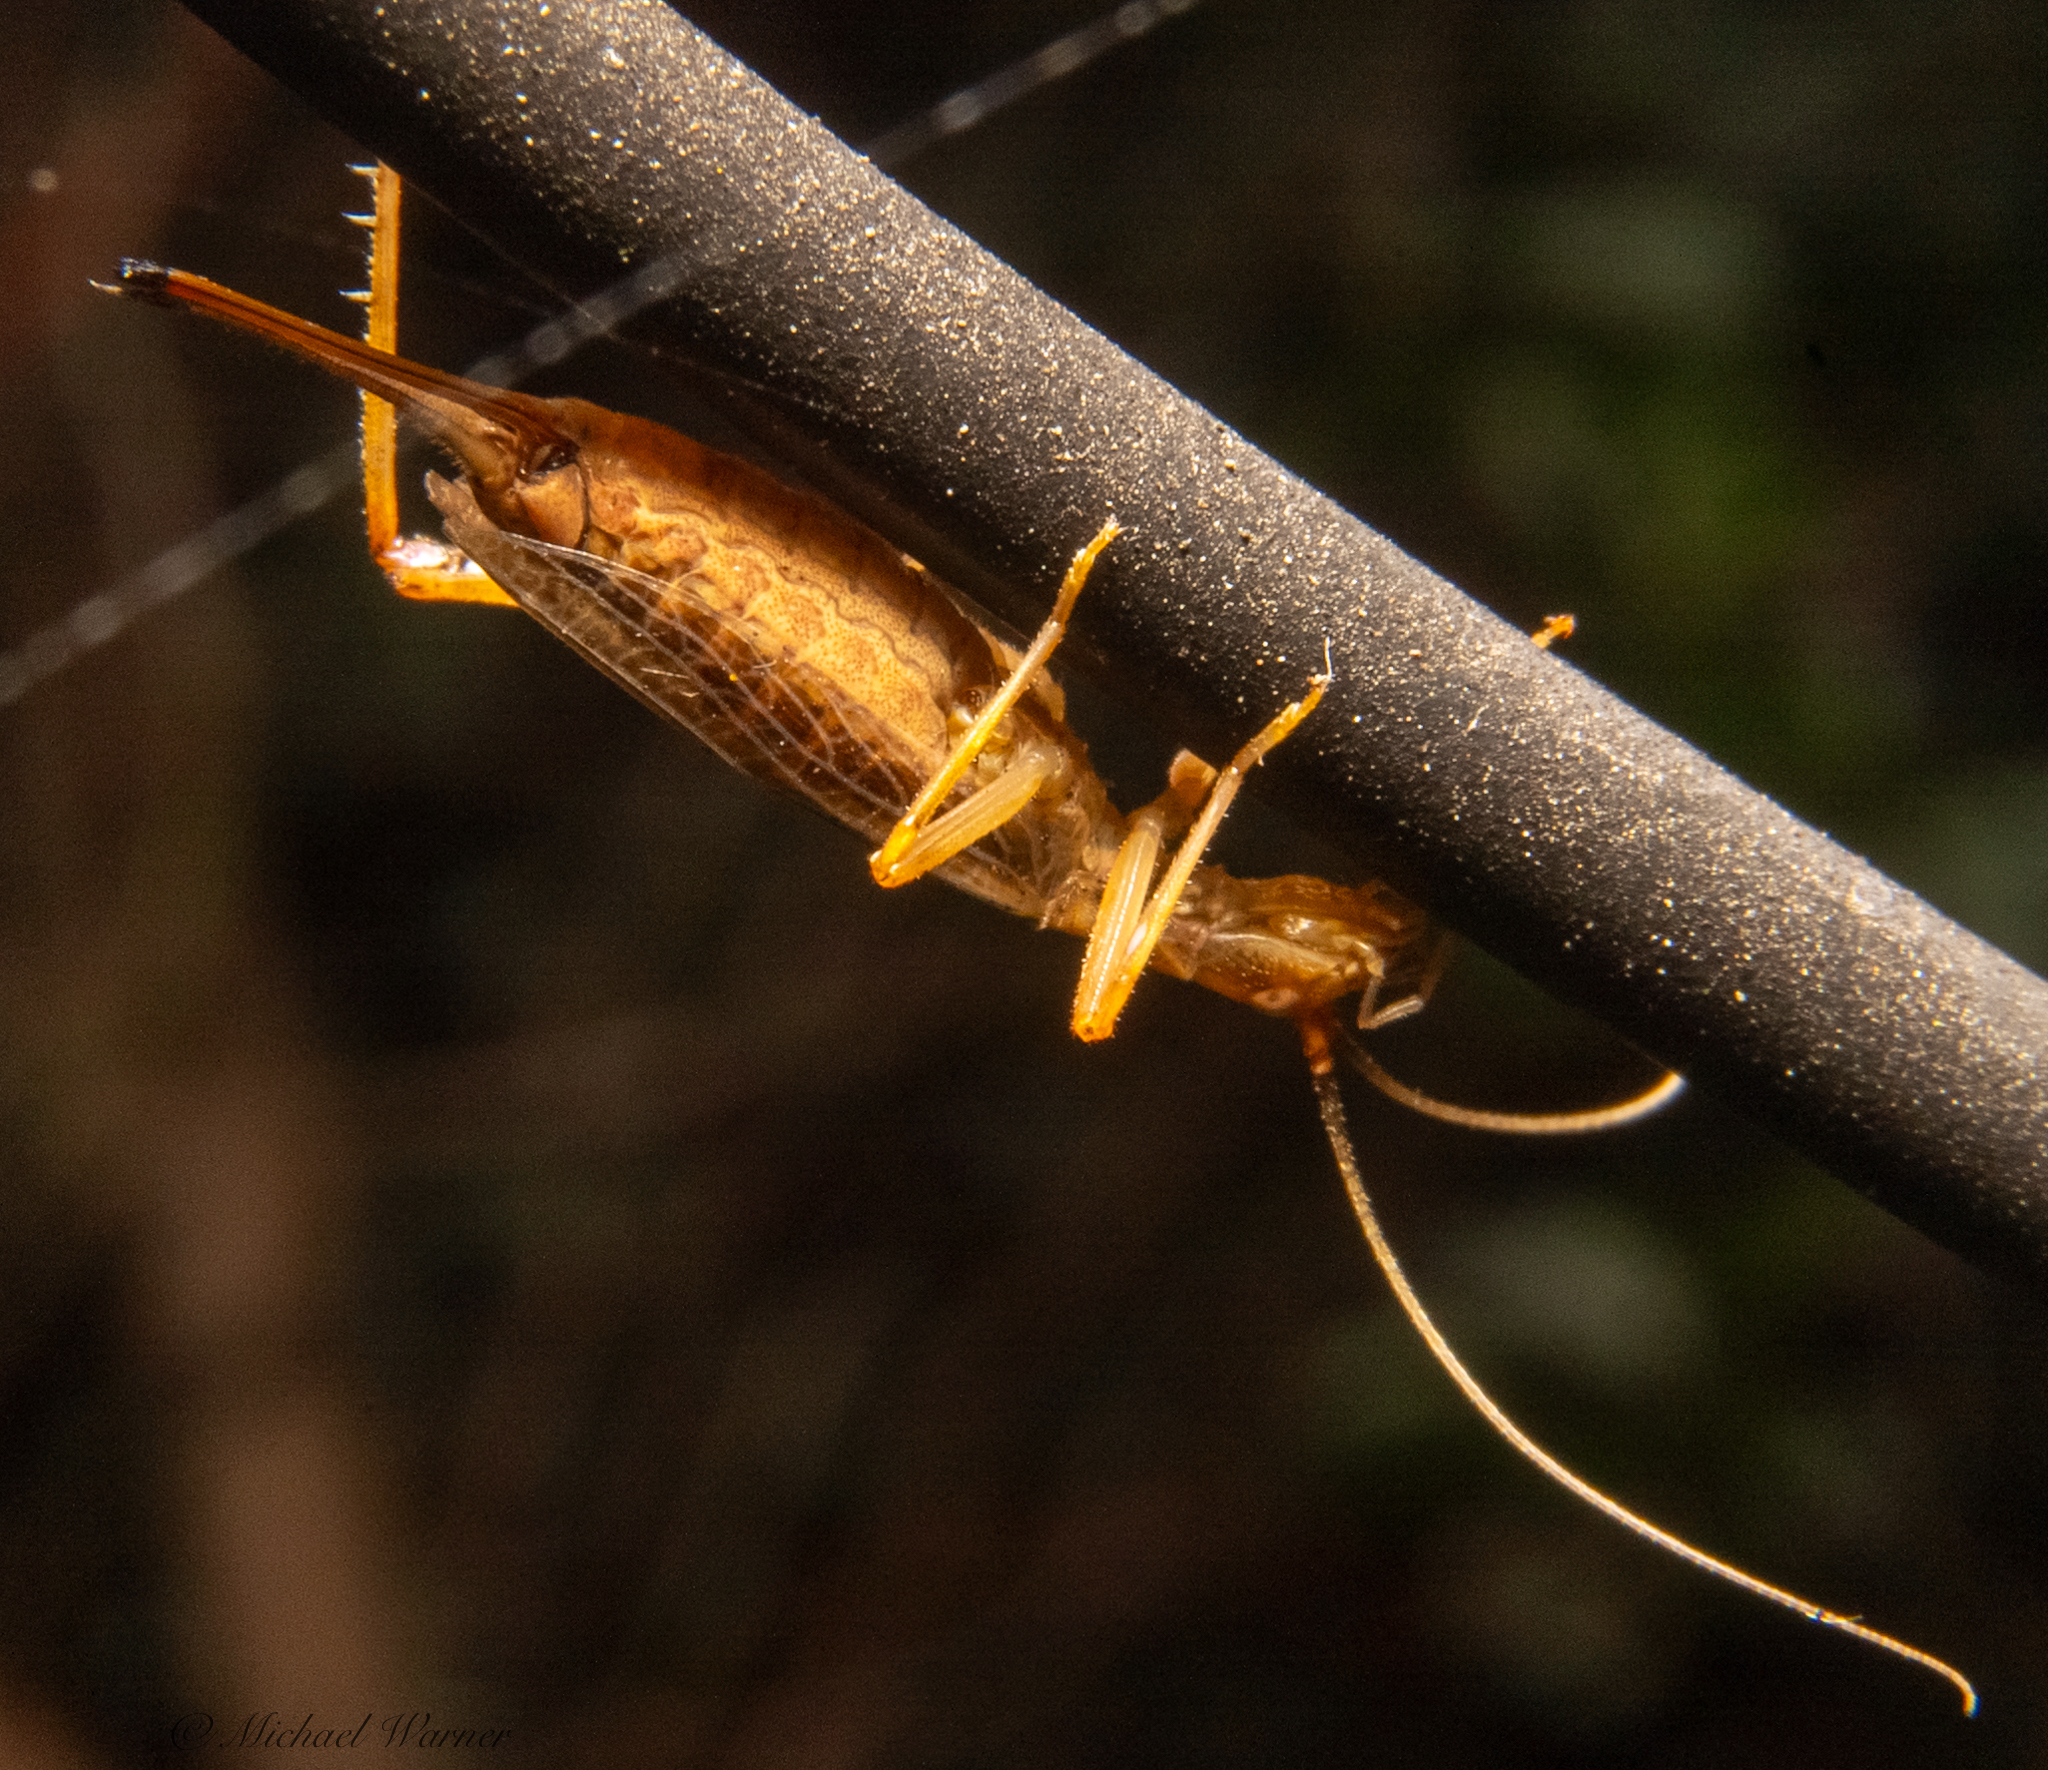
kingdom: Animalia
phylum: Arthropoda
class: Insecta
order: Orthoptera
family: Gryllidae
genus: Oecanthus
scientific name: Oecanthus californicus
